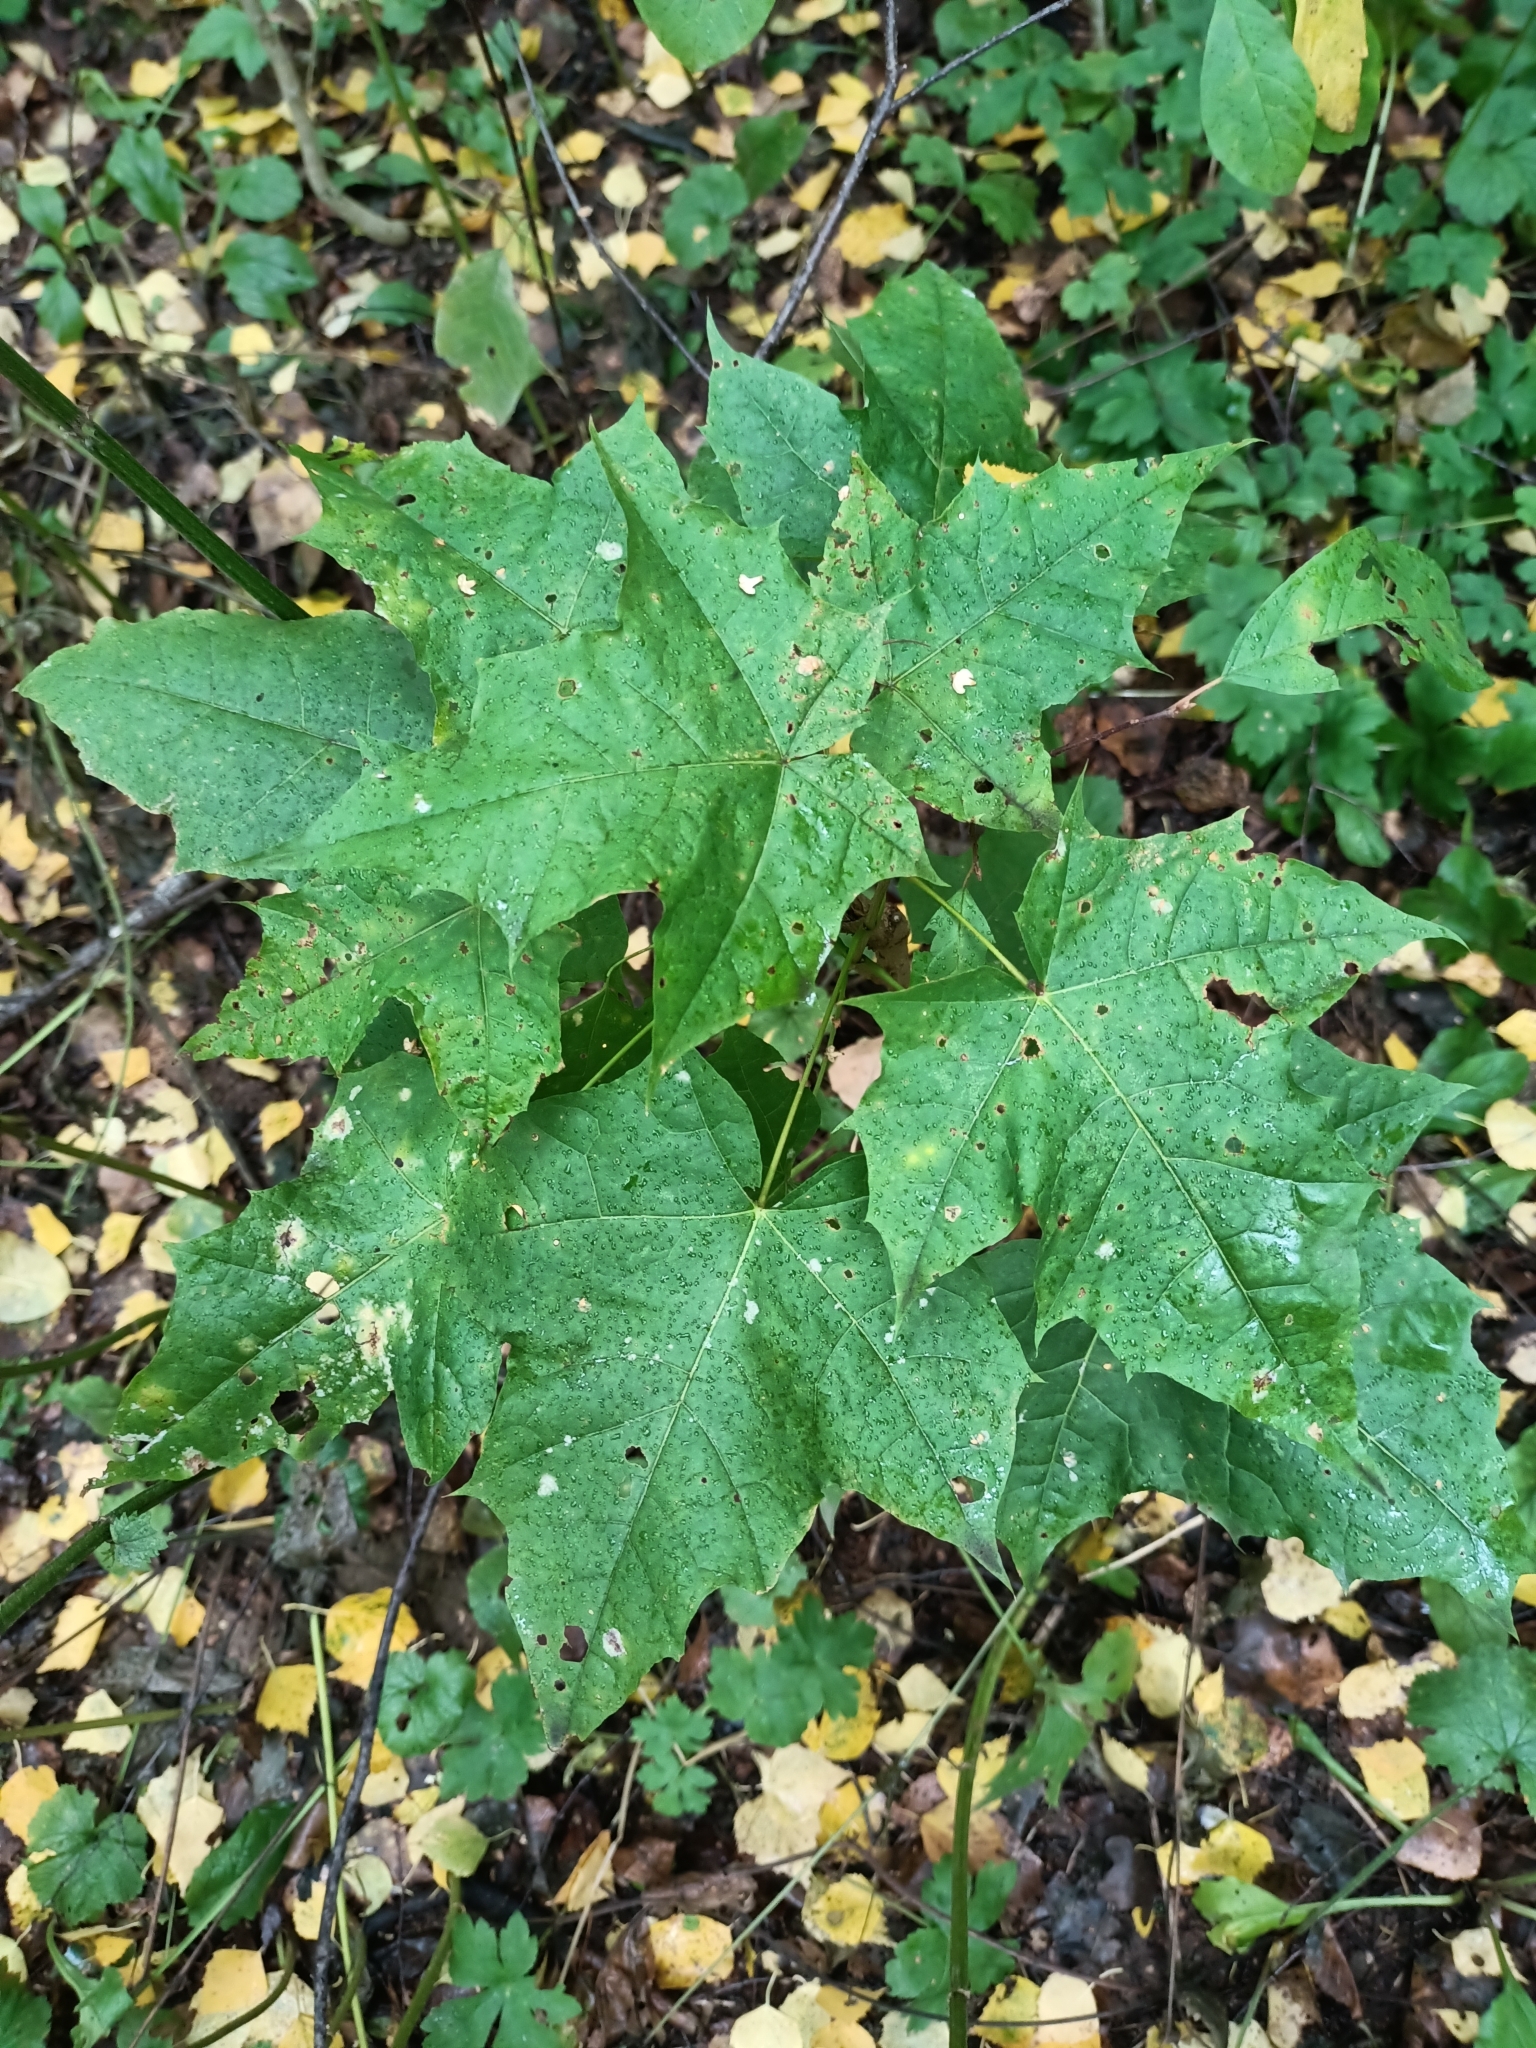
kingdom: Plantae
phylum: Tracheophyta
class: Magnoliopsida
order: Sapindales
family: Sapindaceae
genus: Acer
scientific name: Acer platanoides
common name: Norway maple
